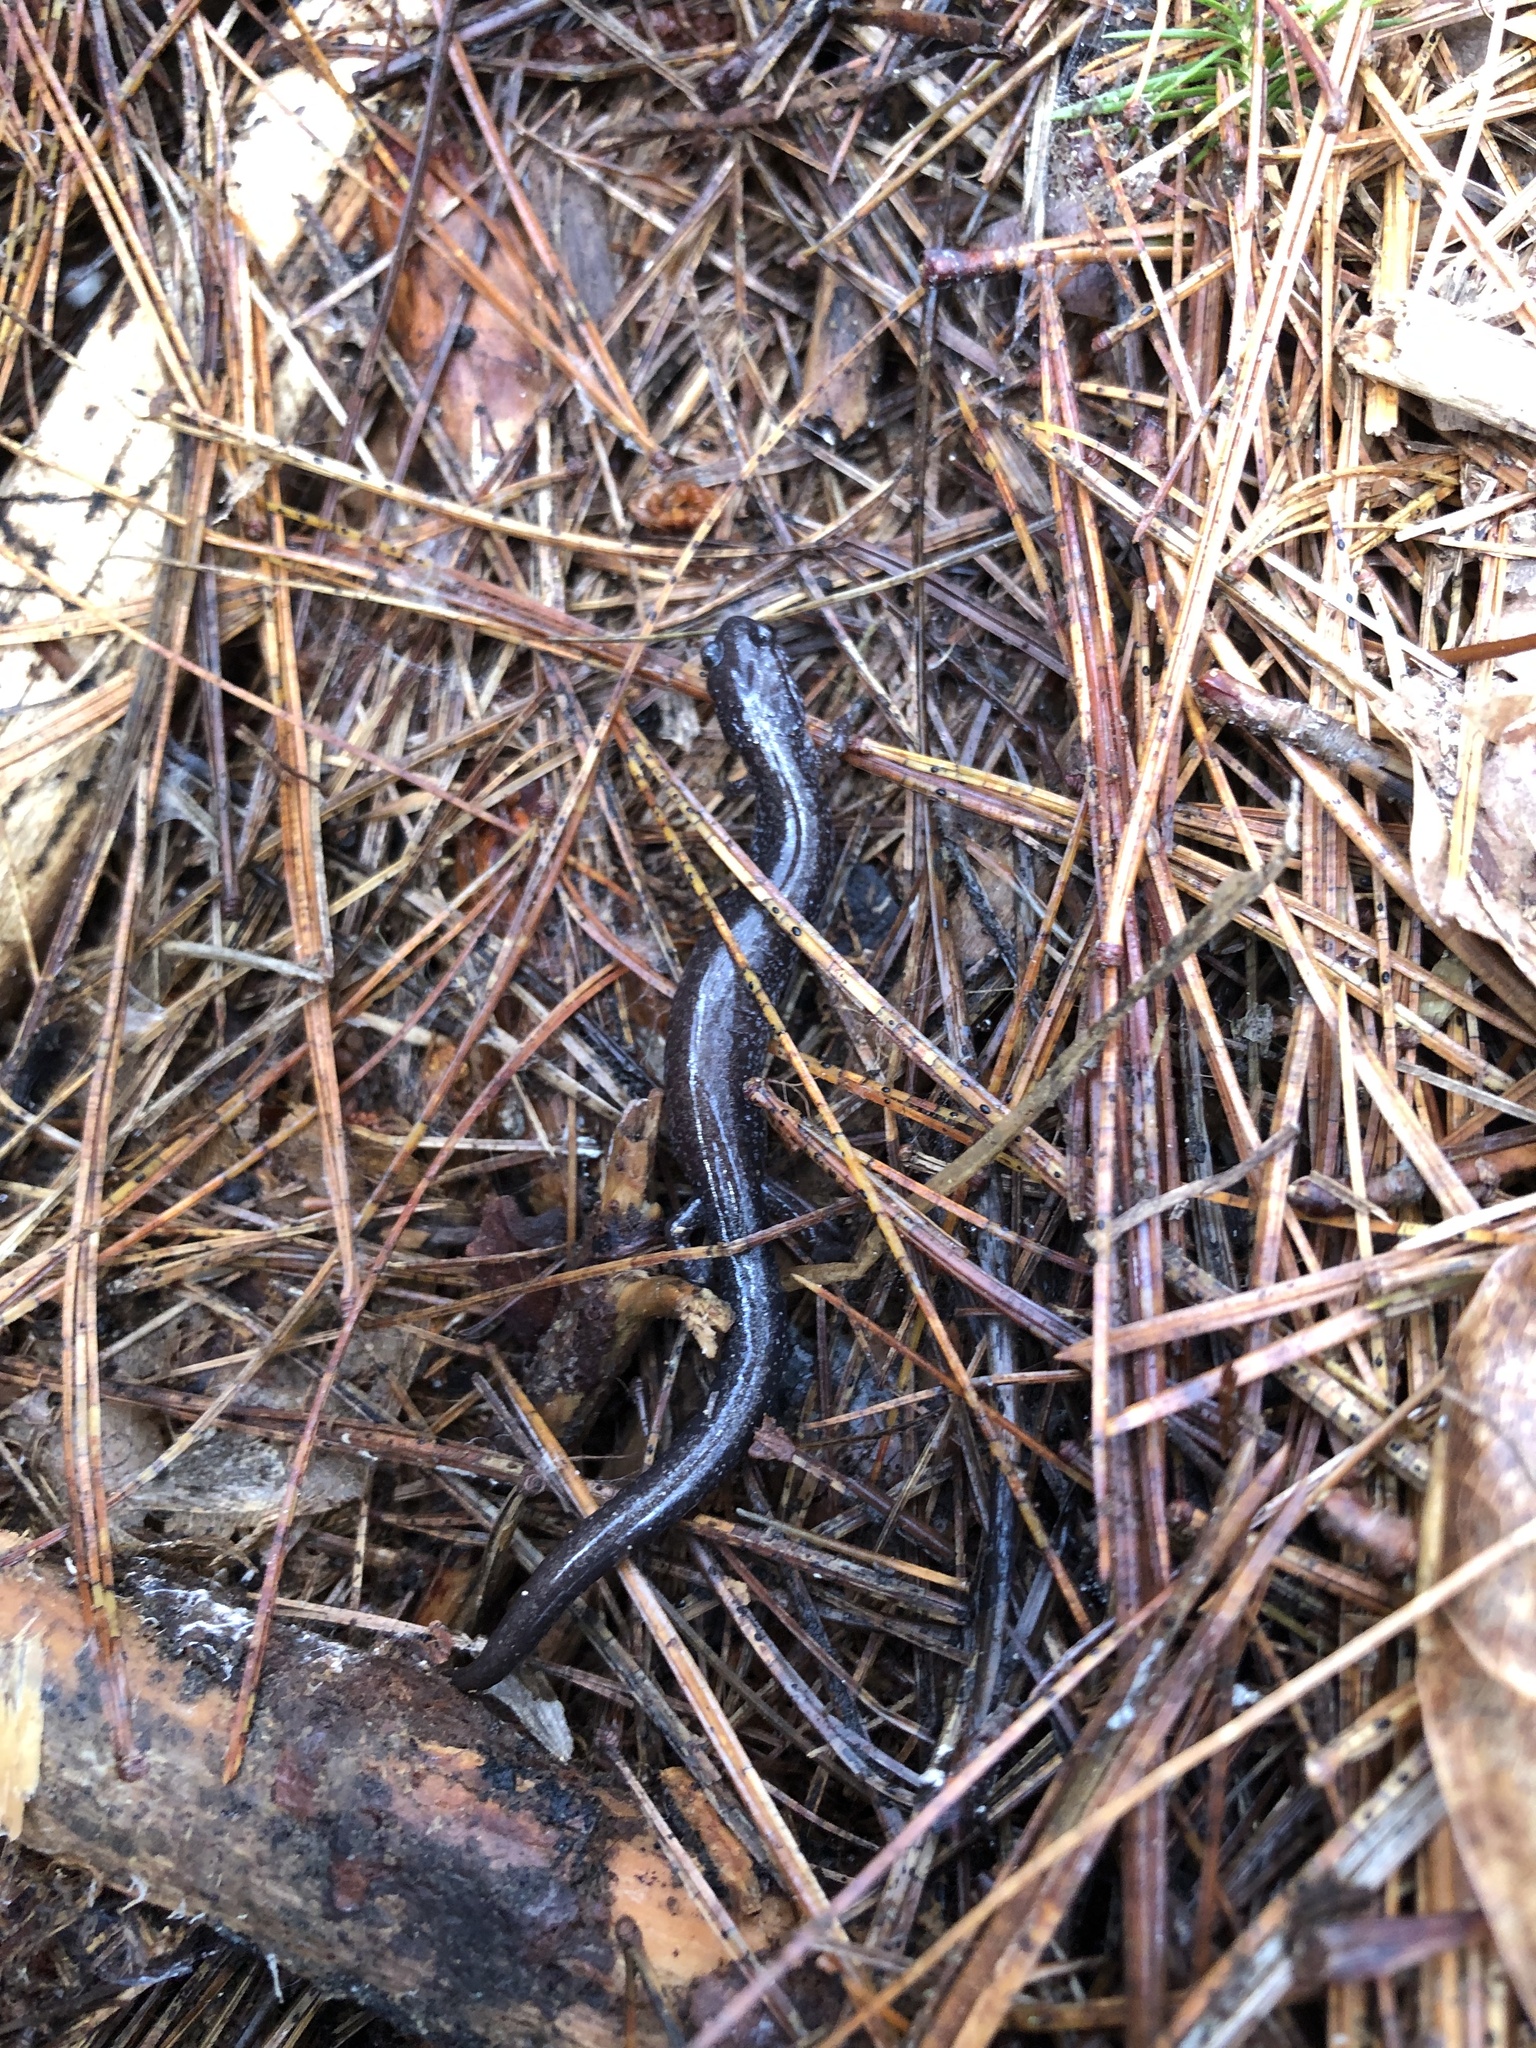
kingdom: Animalia
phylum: Chordata
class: Amphibia
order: Caudata
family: Plethodontidae
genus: Plethodon
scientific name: Plethodon cinereus
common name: Redback salamander
